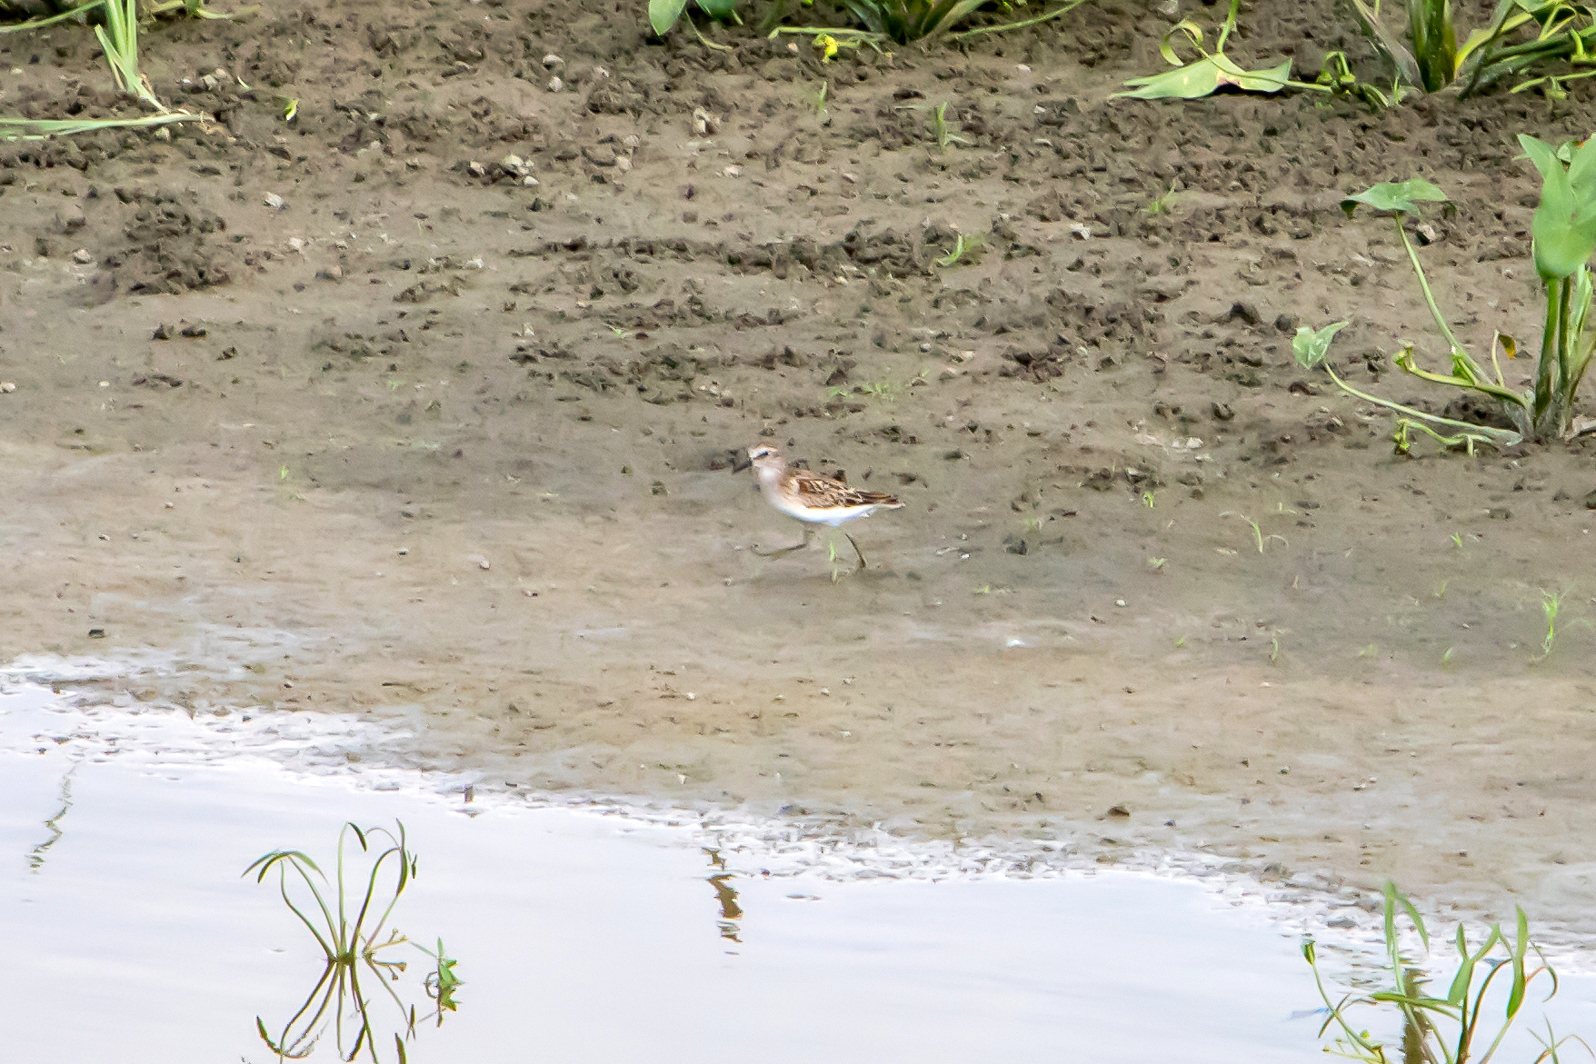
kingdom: Animalia
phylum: Chordata
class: Aves
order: Charadriiformes
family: Scolopacidae
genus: Calidris
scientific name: Calidris minutilla
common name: Least sandpiper
